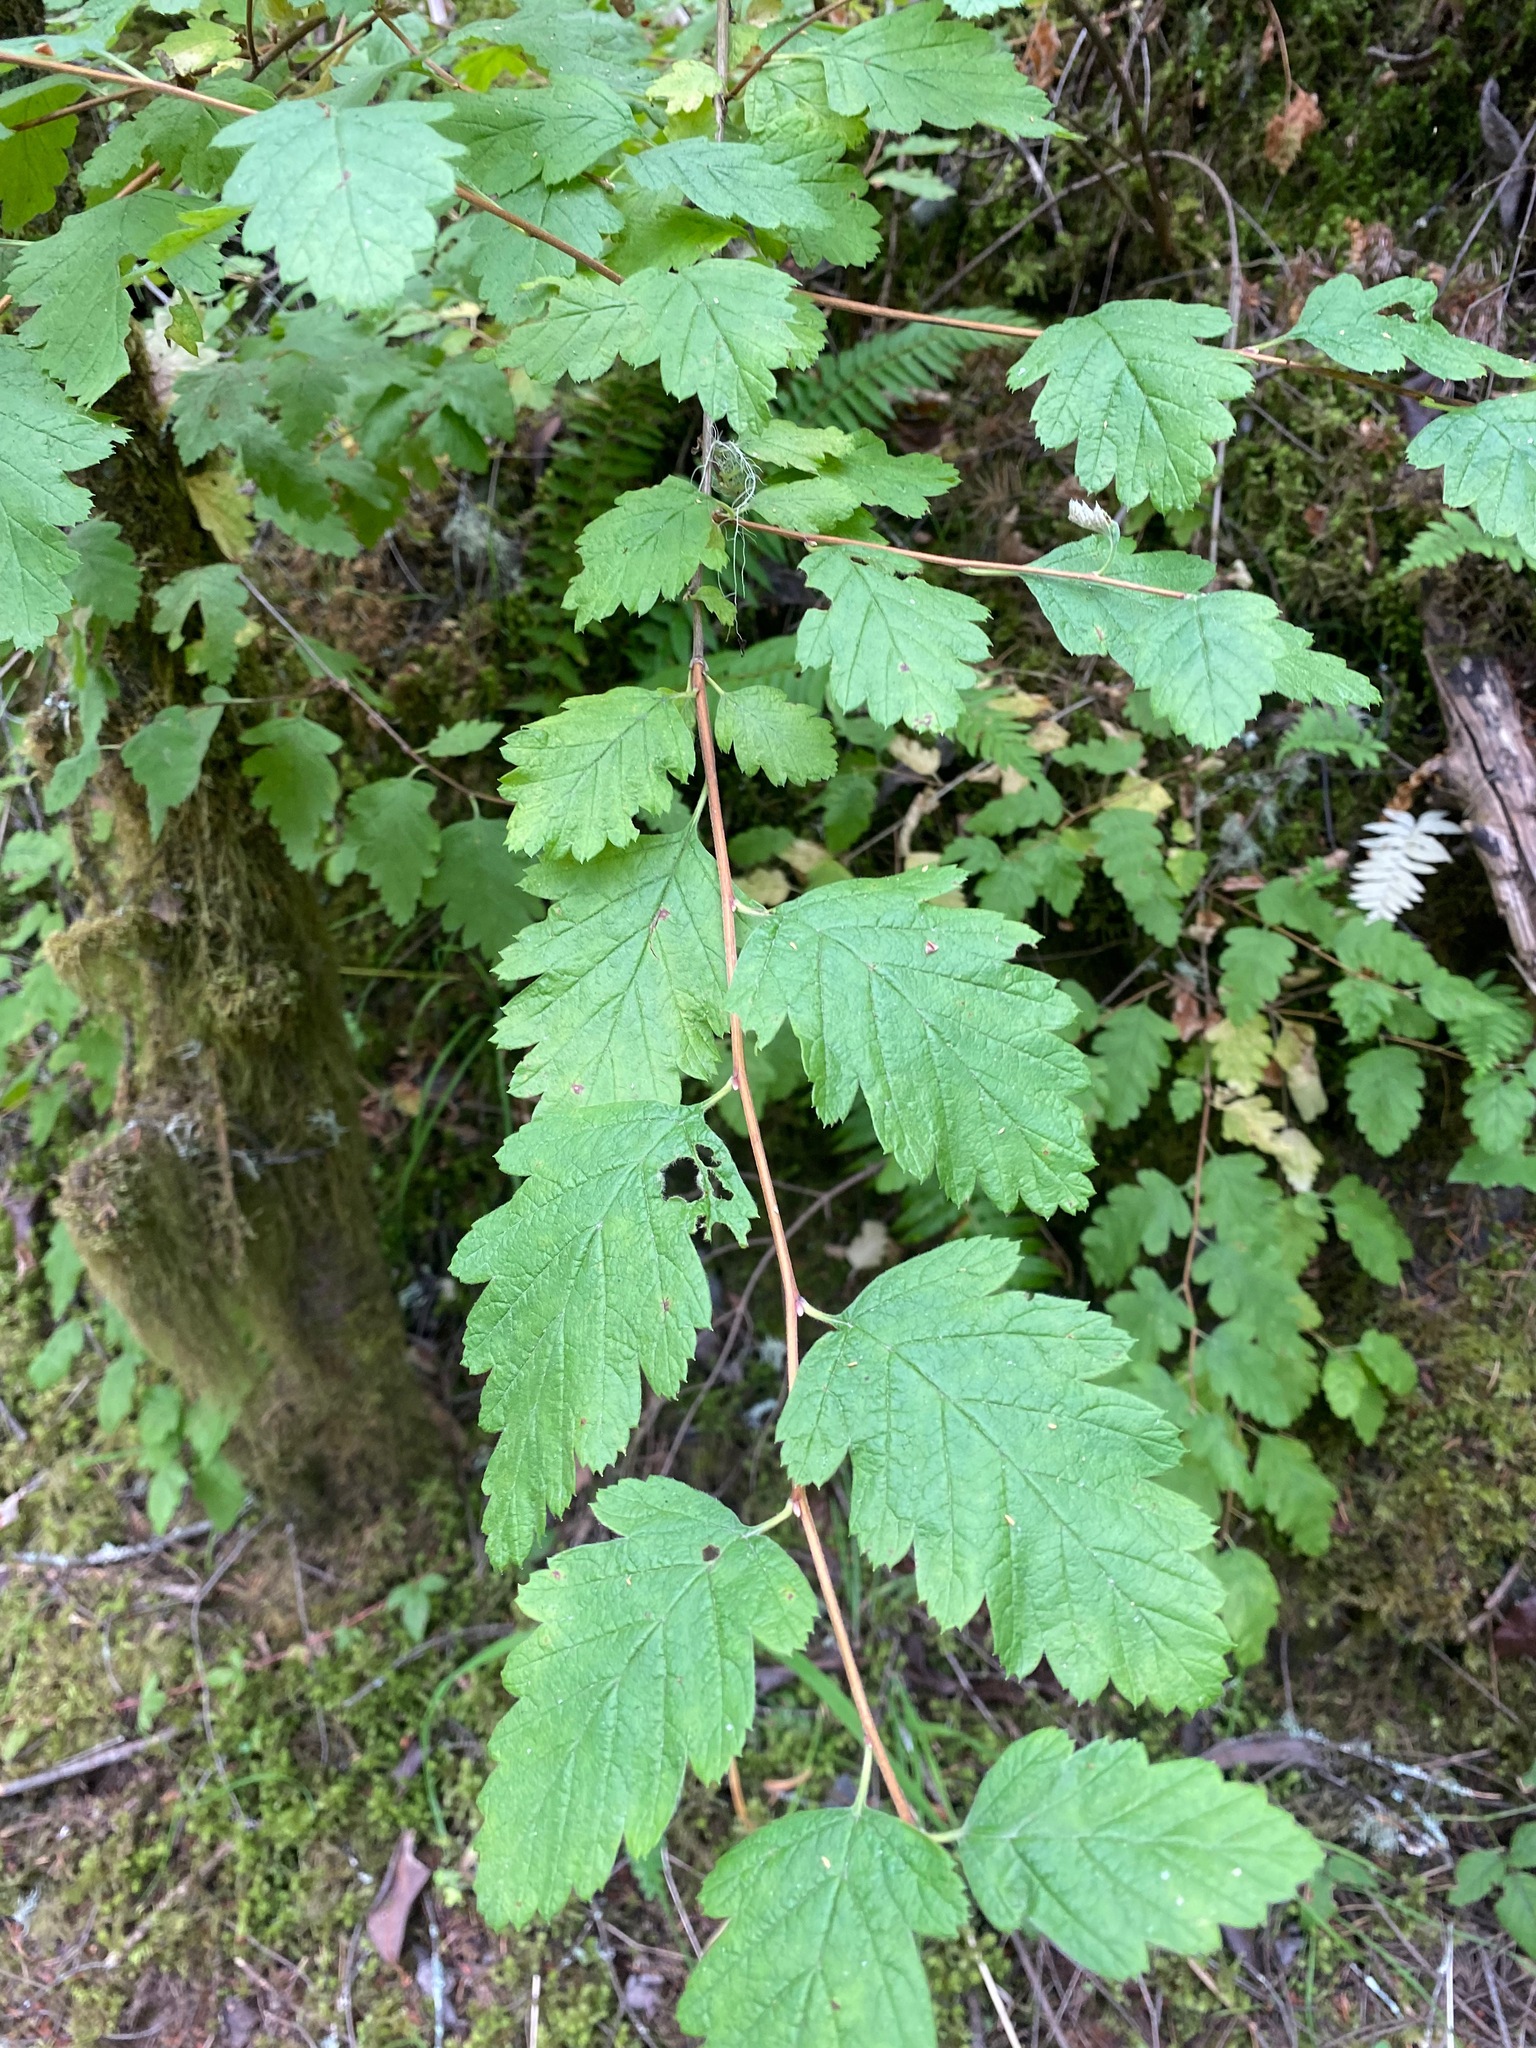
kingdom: Plantae
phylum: Tracheophyta
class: Magnoliopsida
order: Rosales
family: Rosaceae
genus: Holodiscus
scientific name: Holodiscus discolor
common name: Oceanspray
